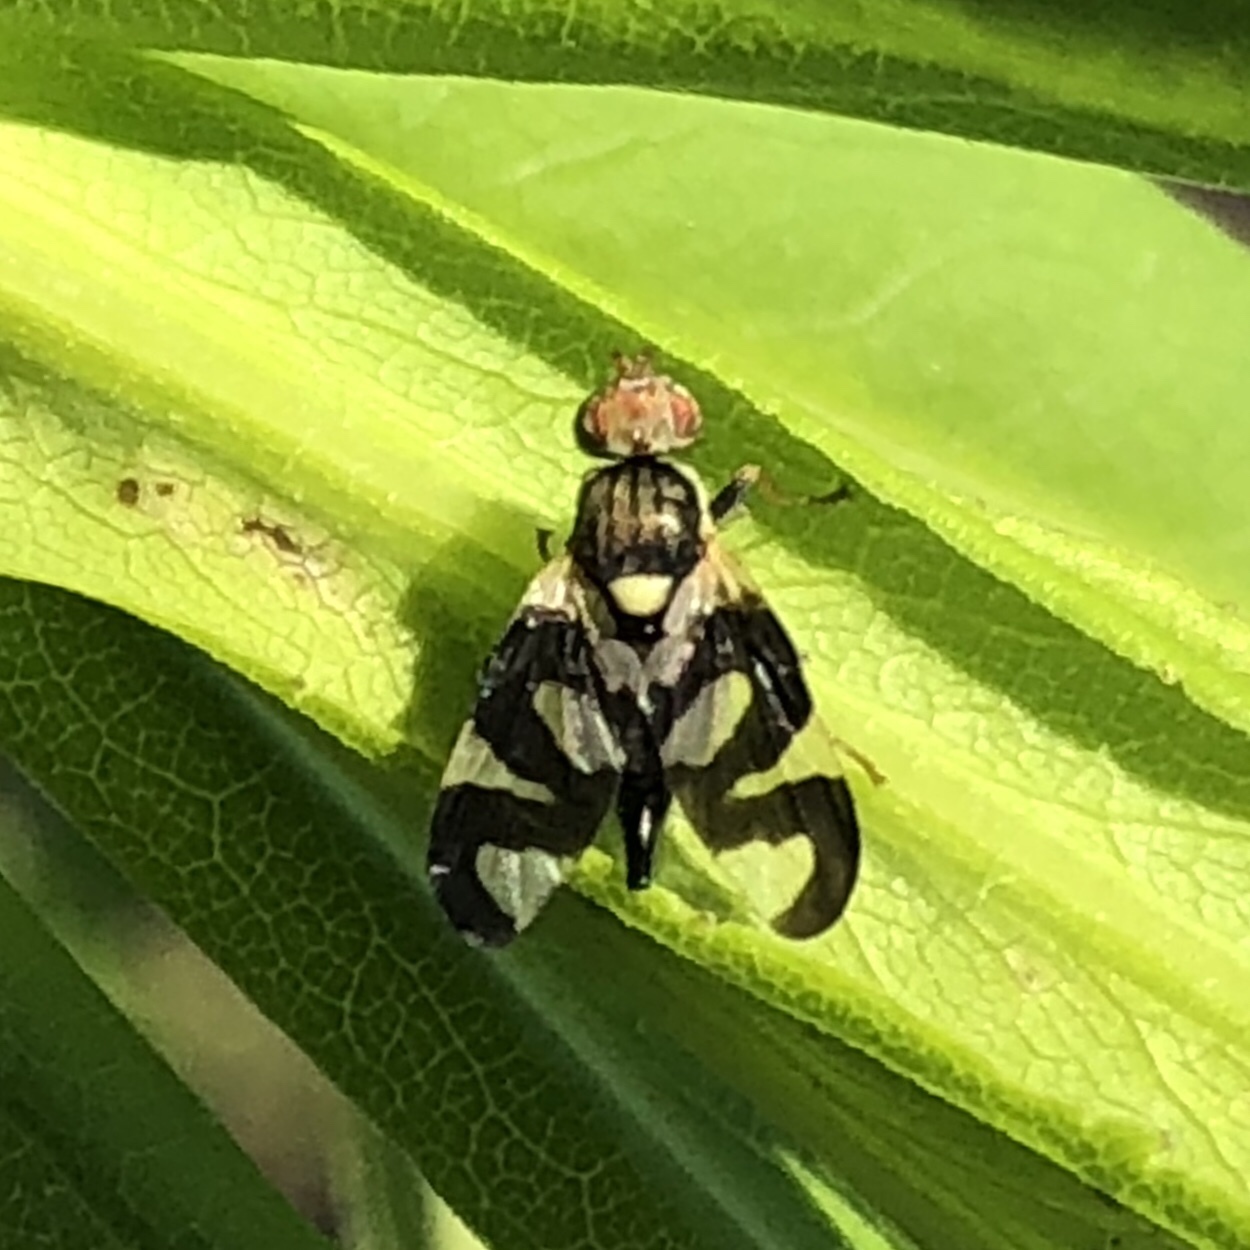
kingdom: Animalia
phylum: Arthropoda
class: Insecta
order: Diptera
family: Tephritidae
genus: Urophora
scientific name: Urophora cardui
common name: Fruit fly
